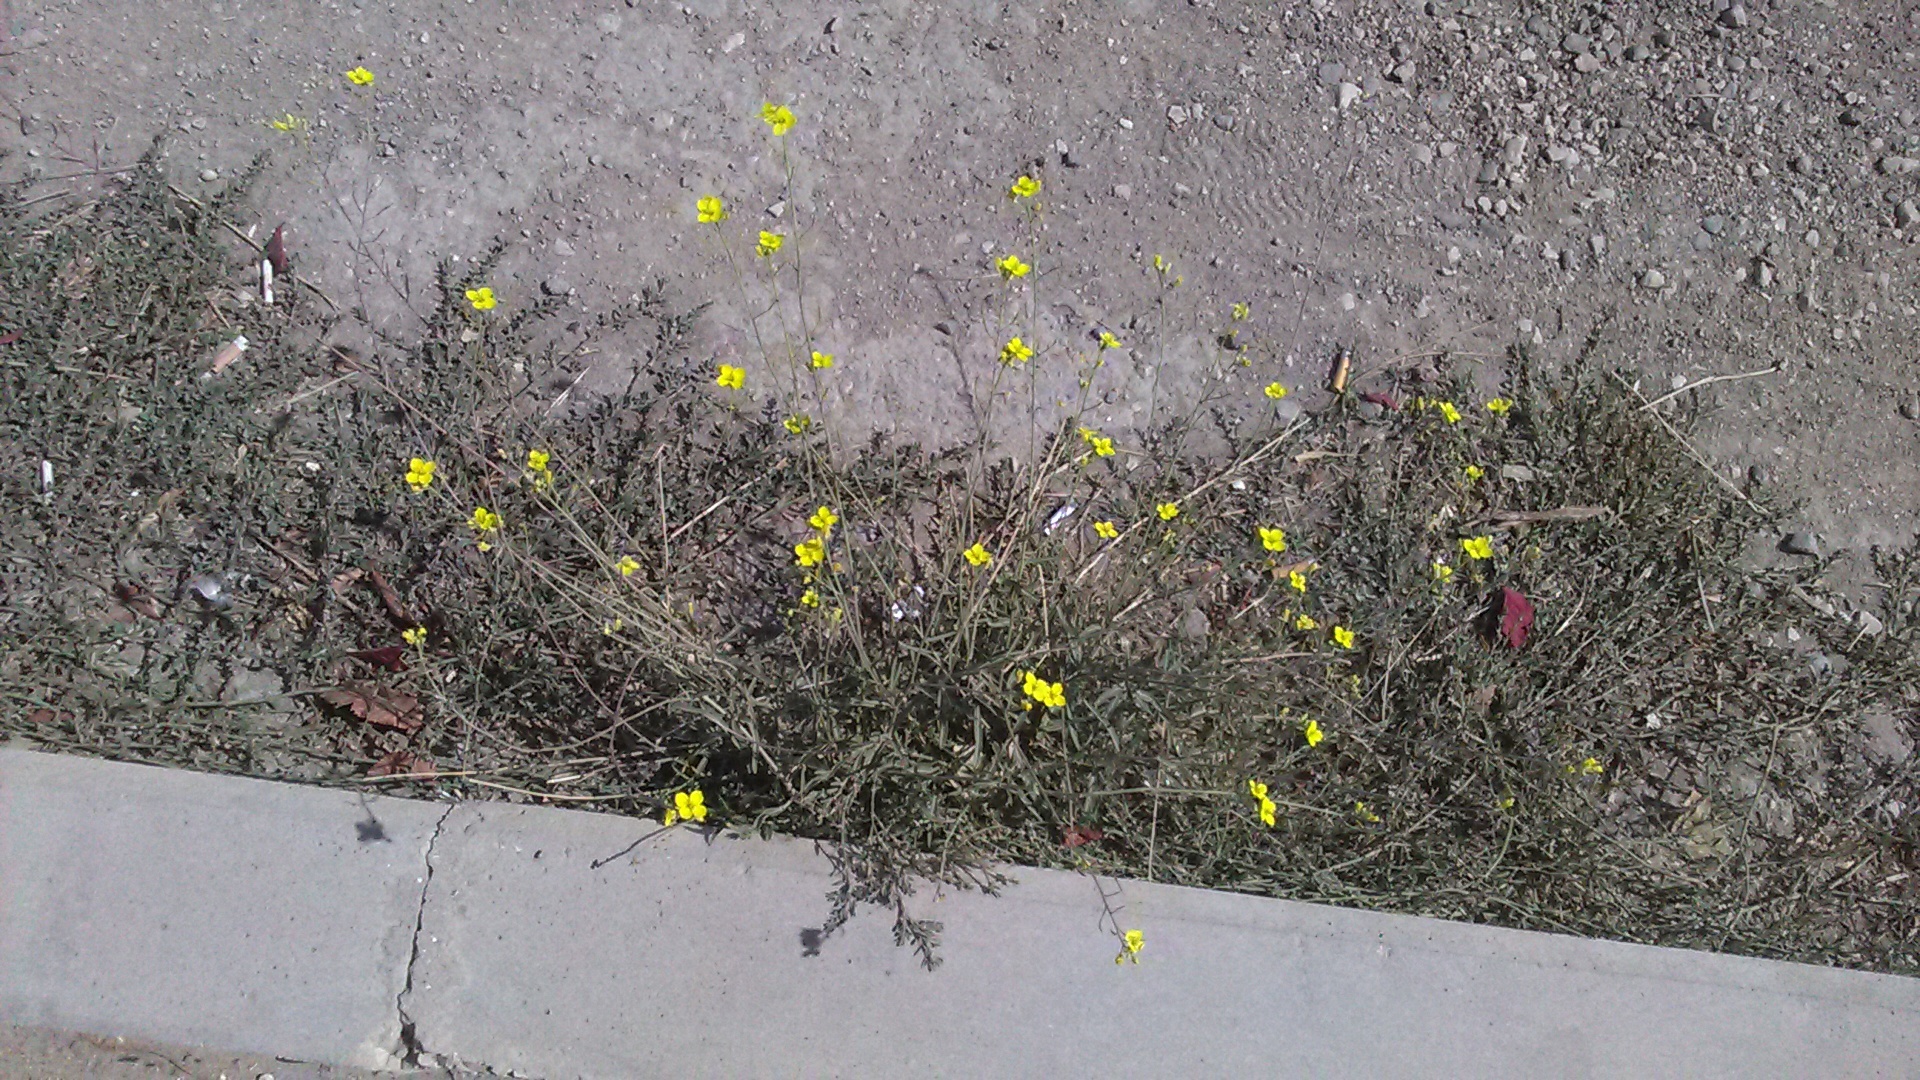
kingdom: Plantae
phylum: Tracheophyta
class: Magnoliopsida
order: Brassicales
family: Brassicaceae
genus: Diplotaxis
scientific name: Diplotaxis tenuifolia
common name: Perennial wall-rocket
